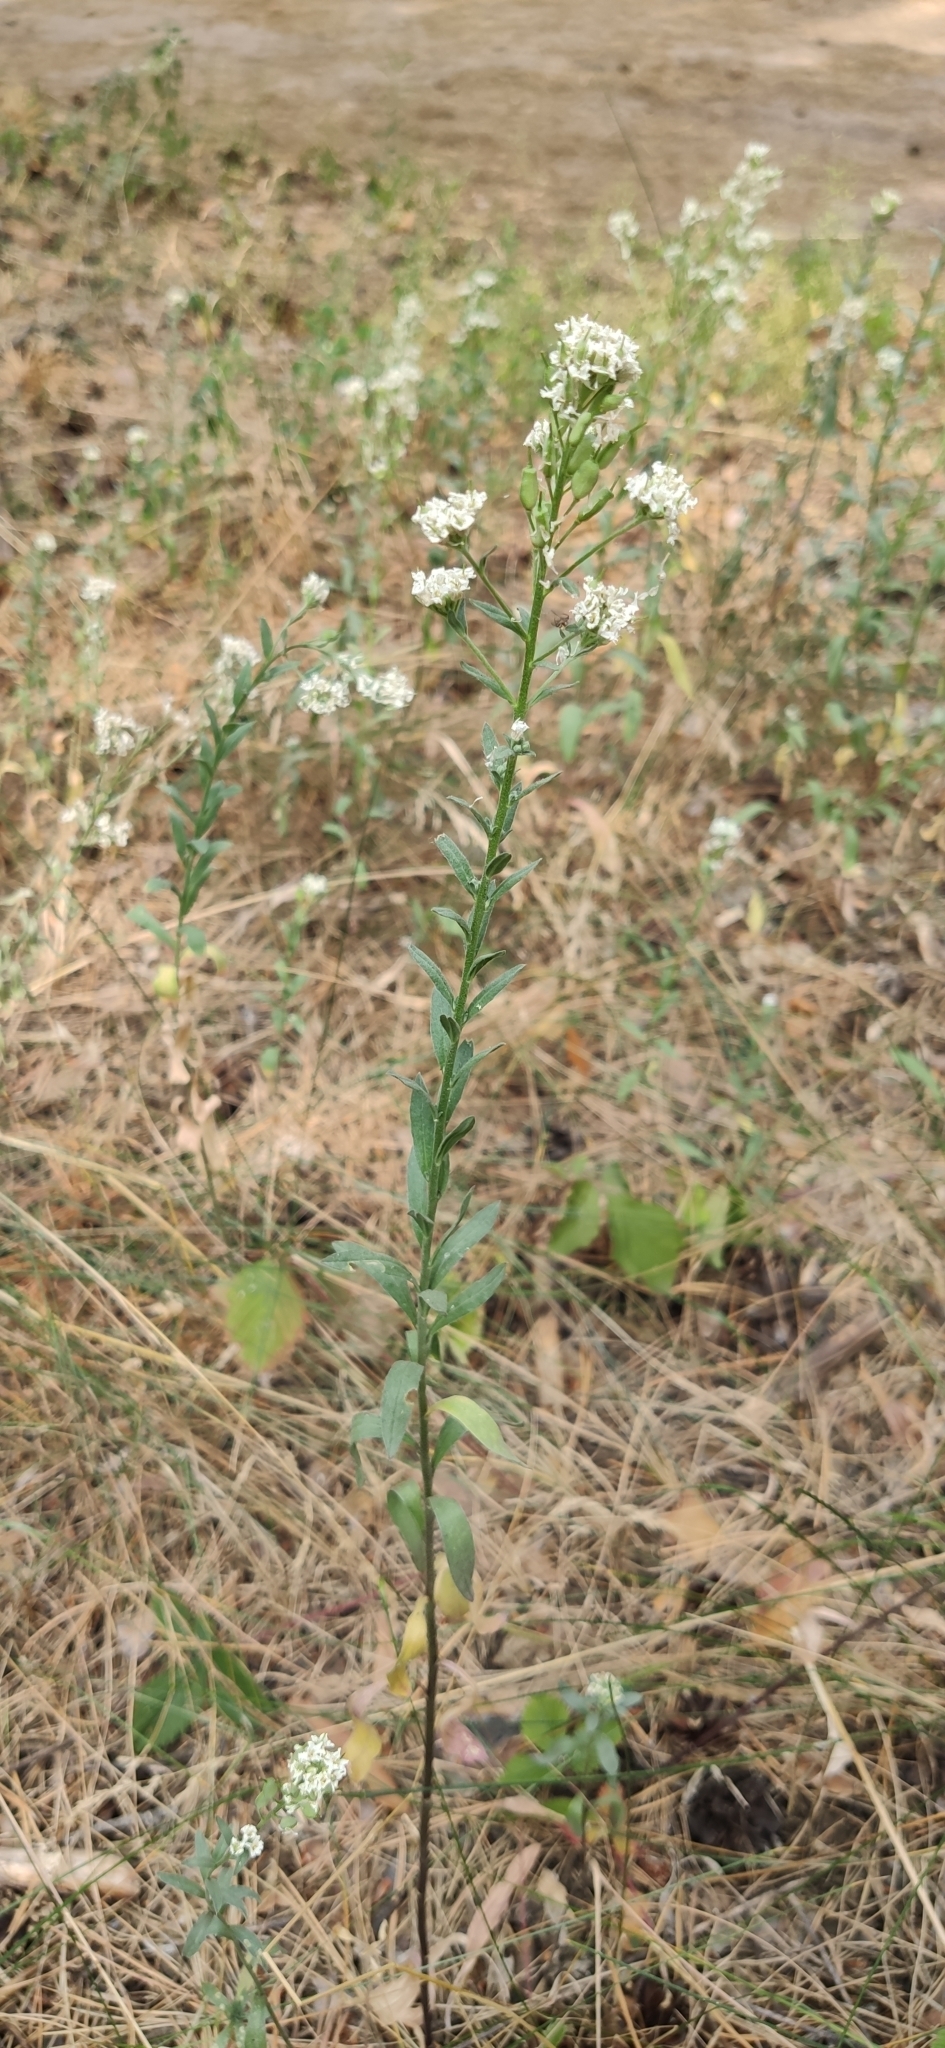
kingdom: Plantae
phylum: Tracheophyta
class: Magnoliopsida
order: Brassicales
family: Brassicaceae
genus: Berteroa
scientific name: Berteroa incana
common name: Hoary alison
